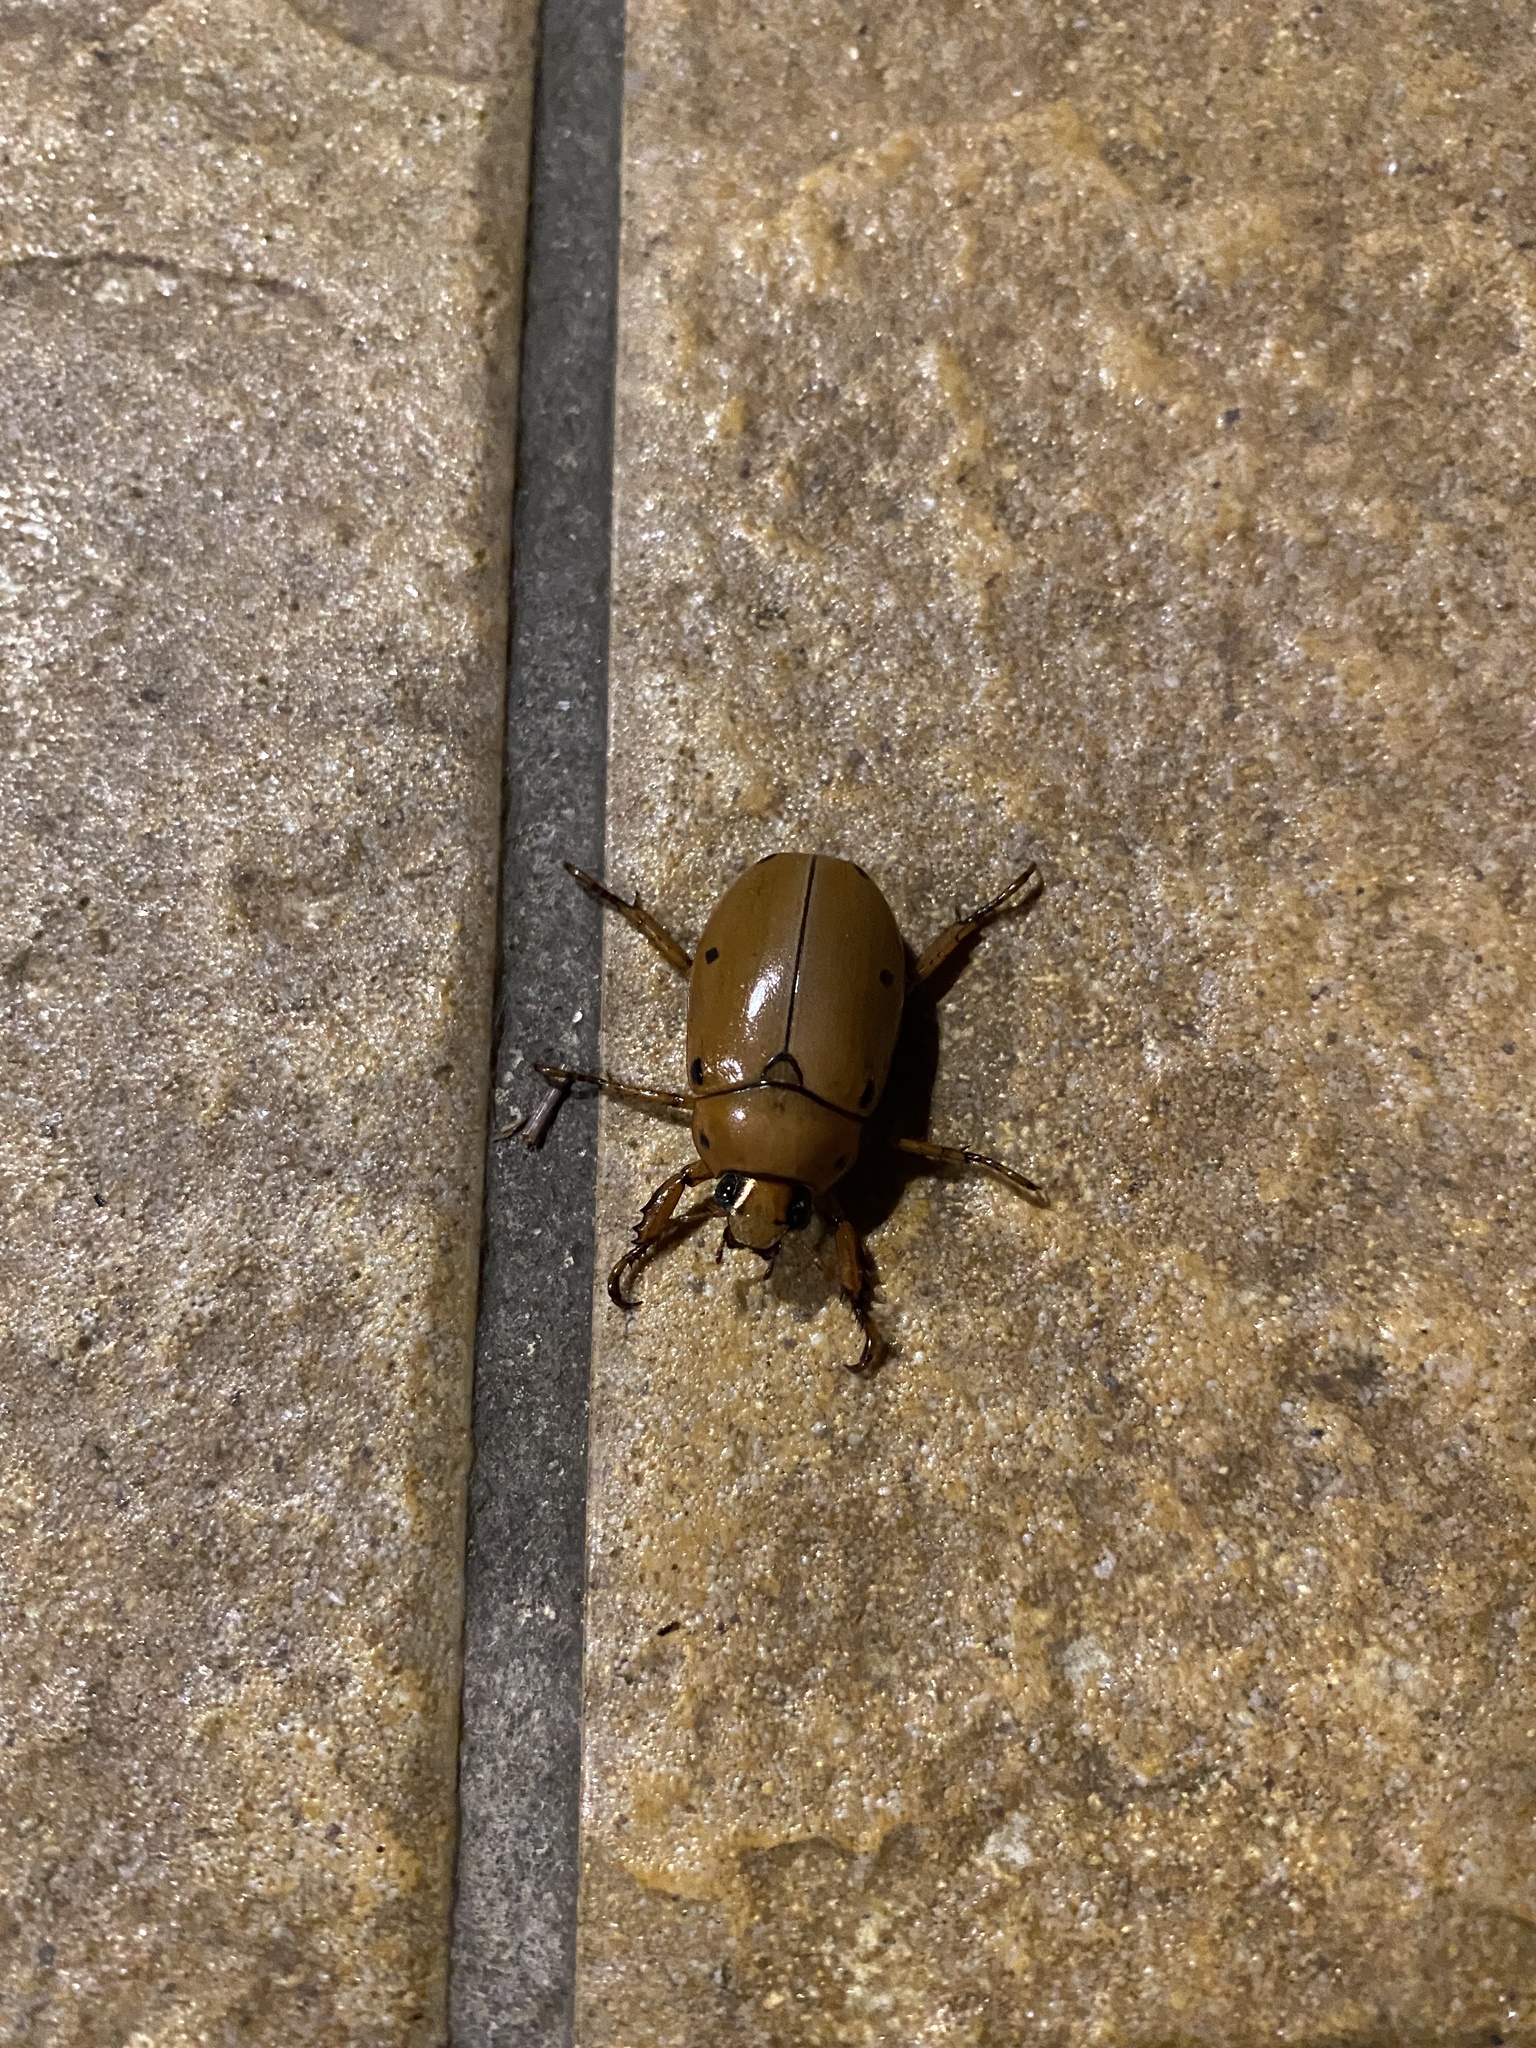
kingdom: Animalia
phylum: Arthropoda
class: Insecta
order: Coleoptera
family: Scarabaeidae
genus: Pelidnota
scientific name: Pelidnota punctata
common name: Grapevine beetle
